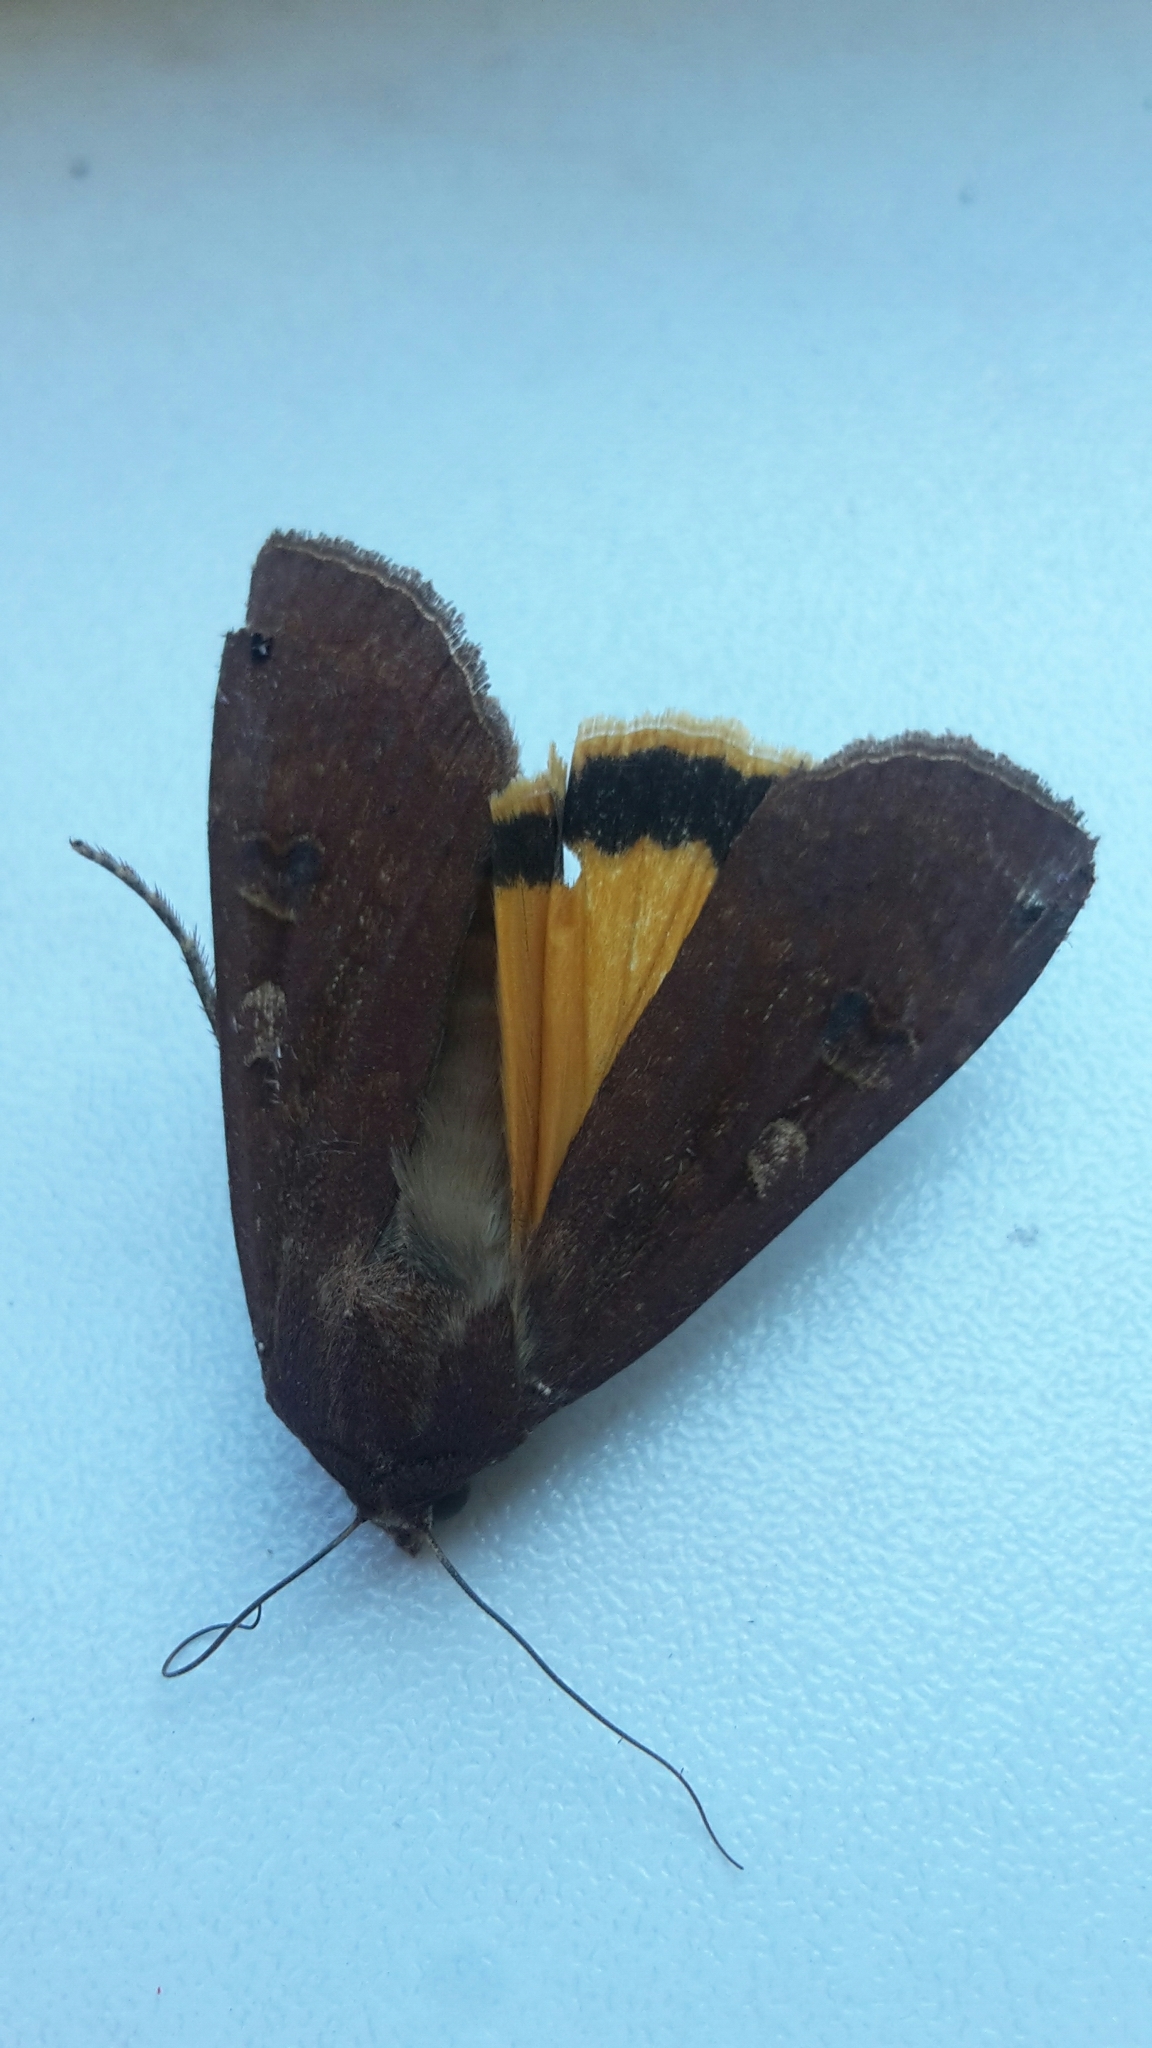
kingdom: Animalia
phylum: Arthropoda
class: Insecta
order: Lepidoptera
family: Noctuidae
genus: Noctua
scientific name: Noctua pronuba
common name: Large yellow underwing
